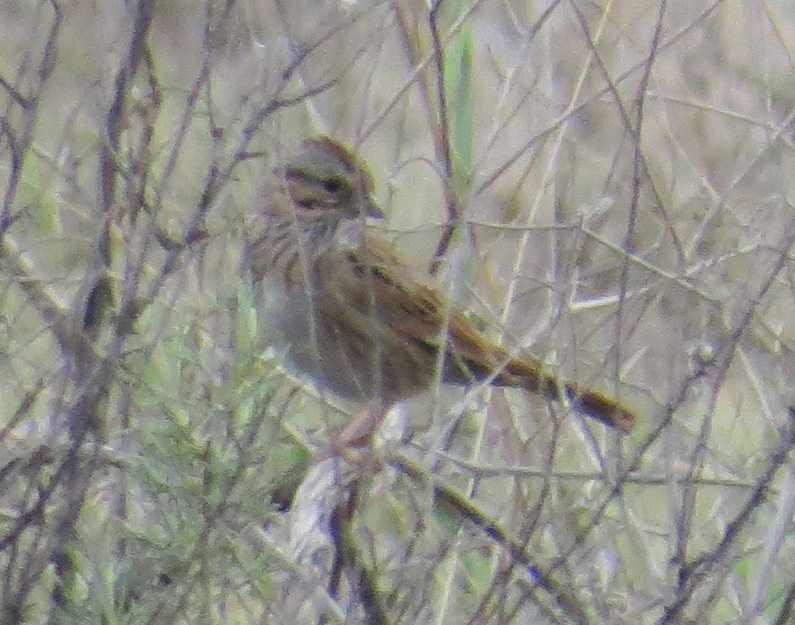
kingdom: Animalia
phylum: Chordata
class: Aves
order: Passeriformes
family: Passerellidae
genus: Melospiza
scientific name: Melospiza lincolnii
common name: Lincoln's sparrow
